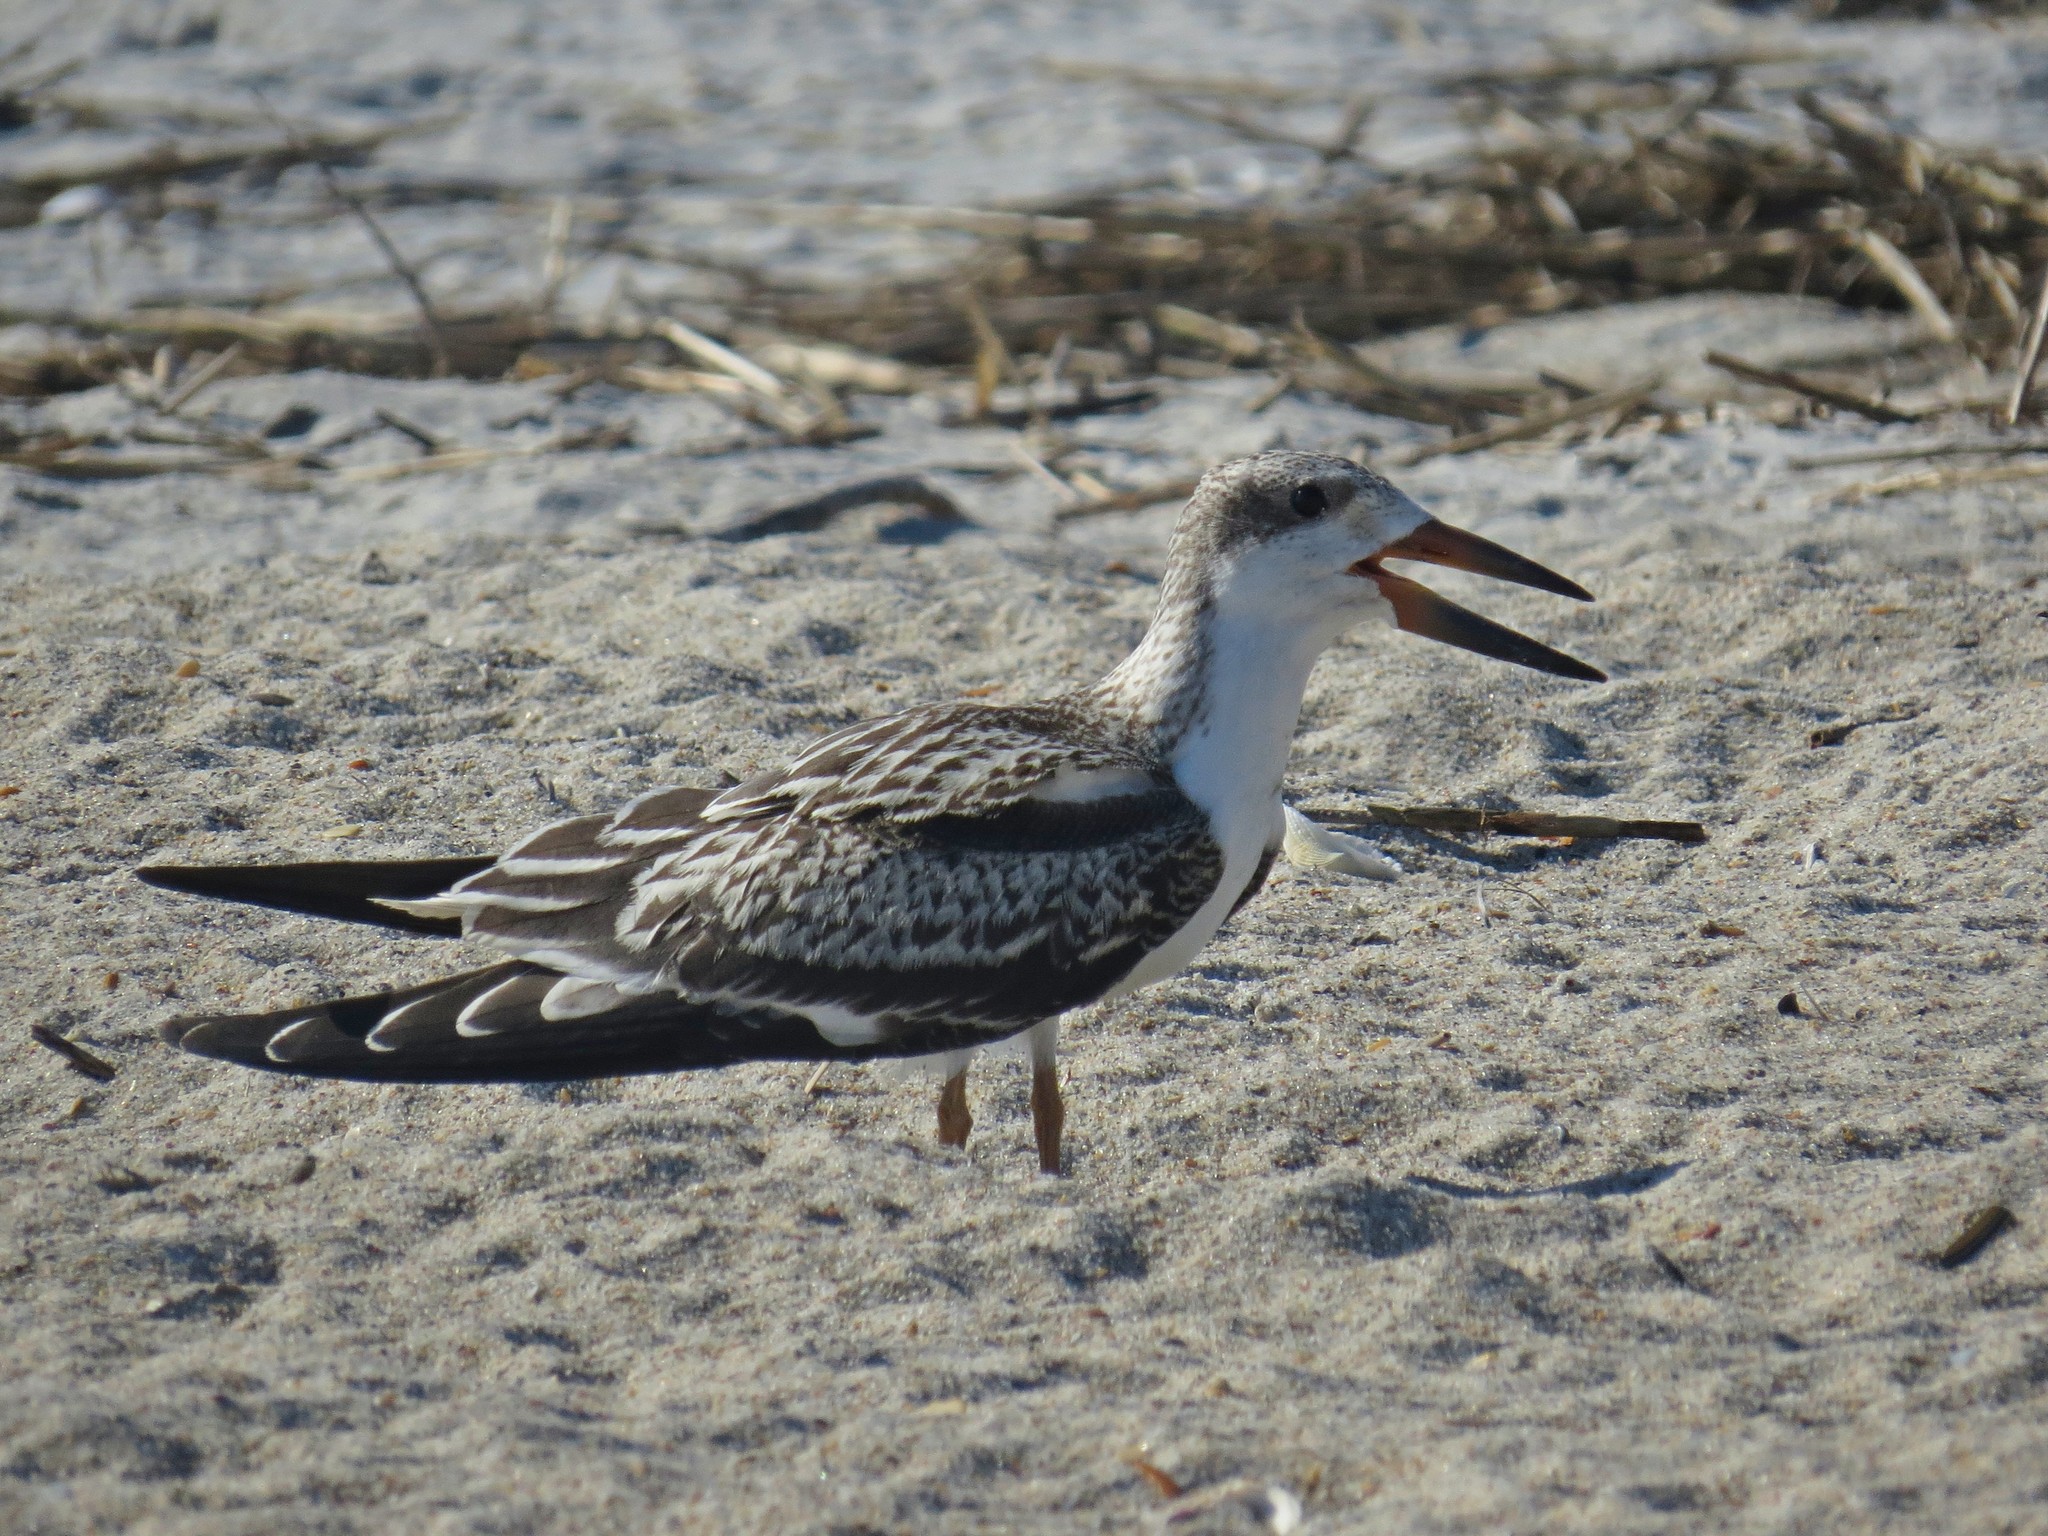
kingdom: Animalia
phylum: Chordata
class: Aves
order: Charadriiformes
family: Laridae
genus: Rynchops
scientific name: Rynchops niger
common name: Black skimmer
